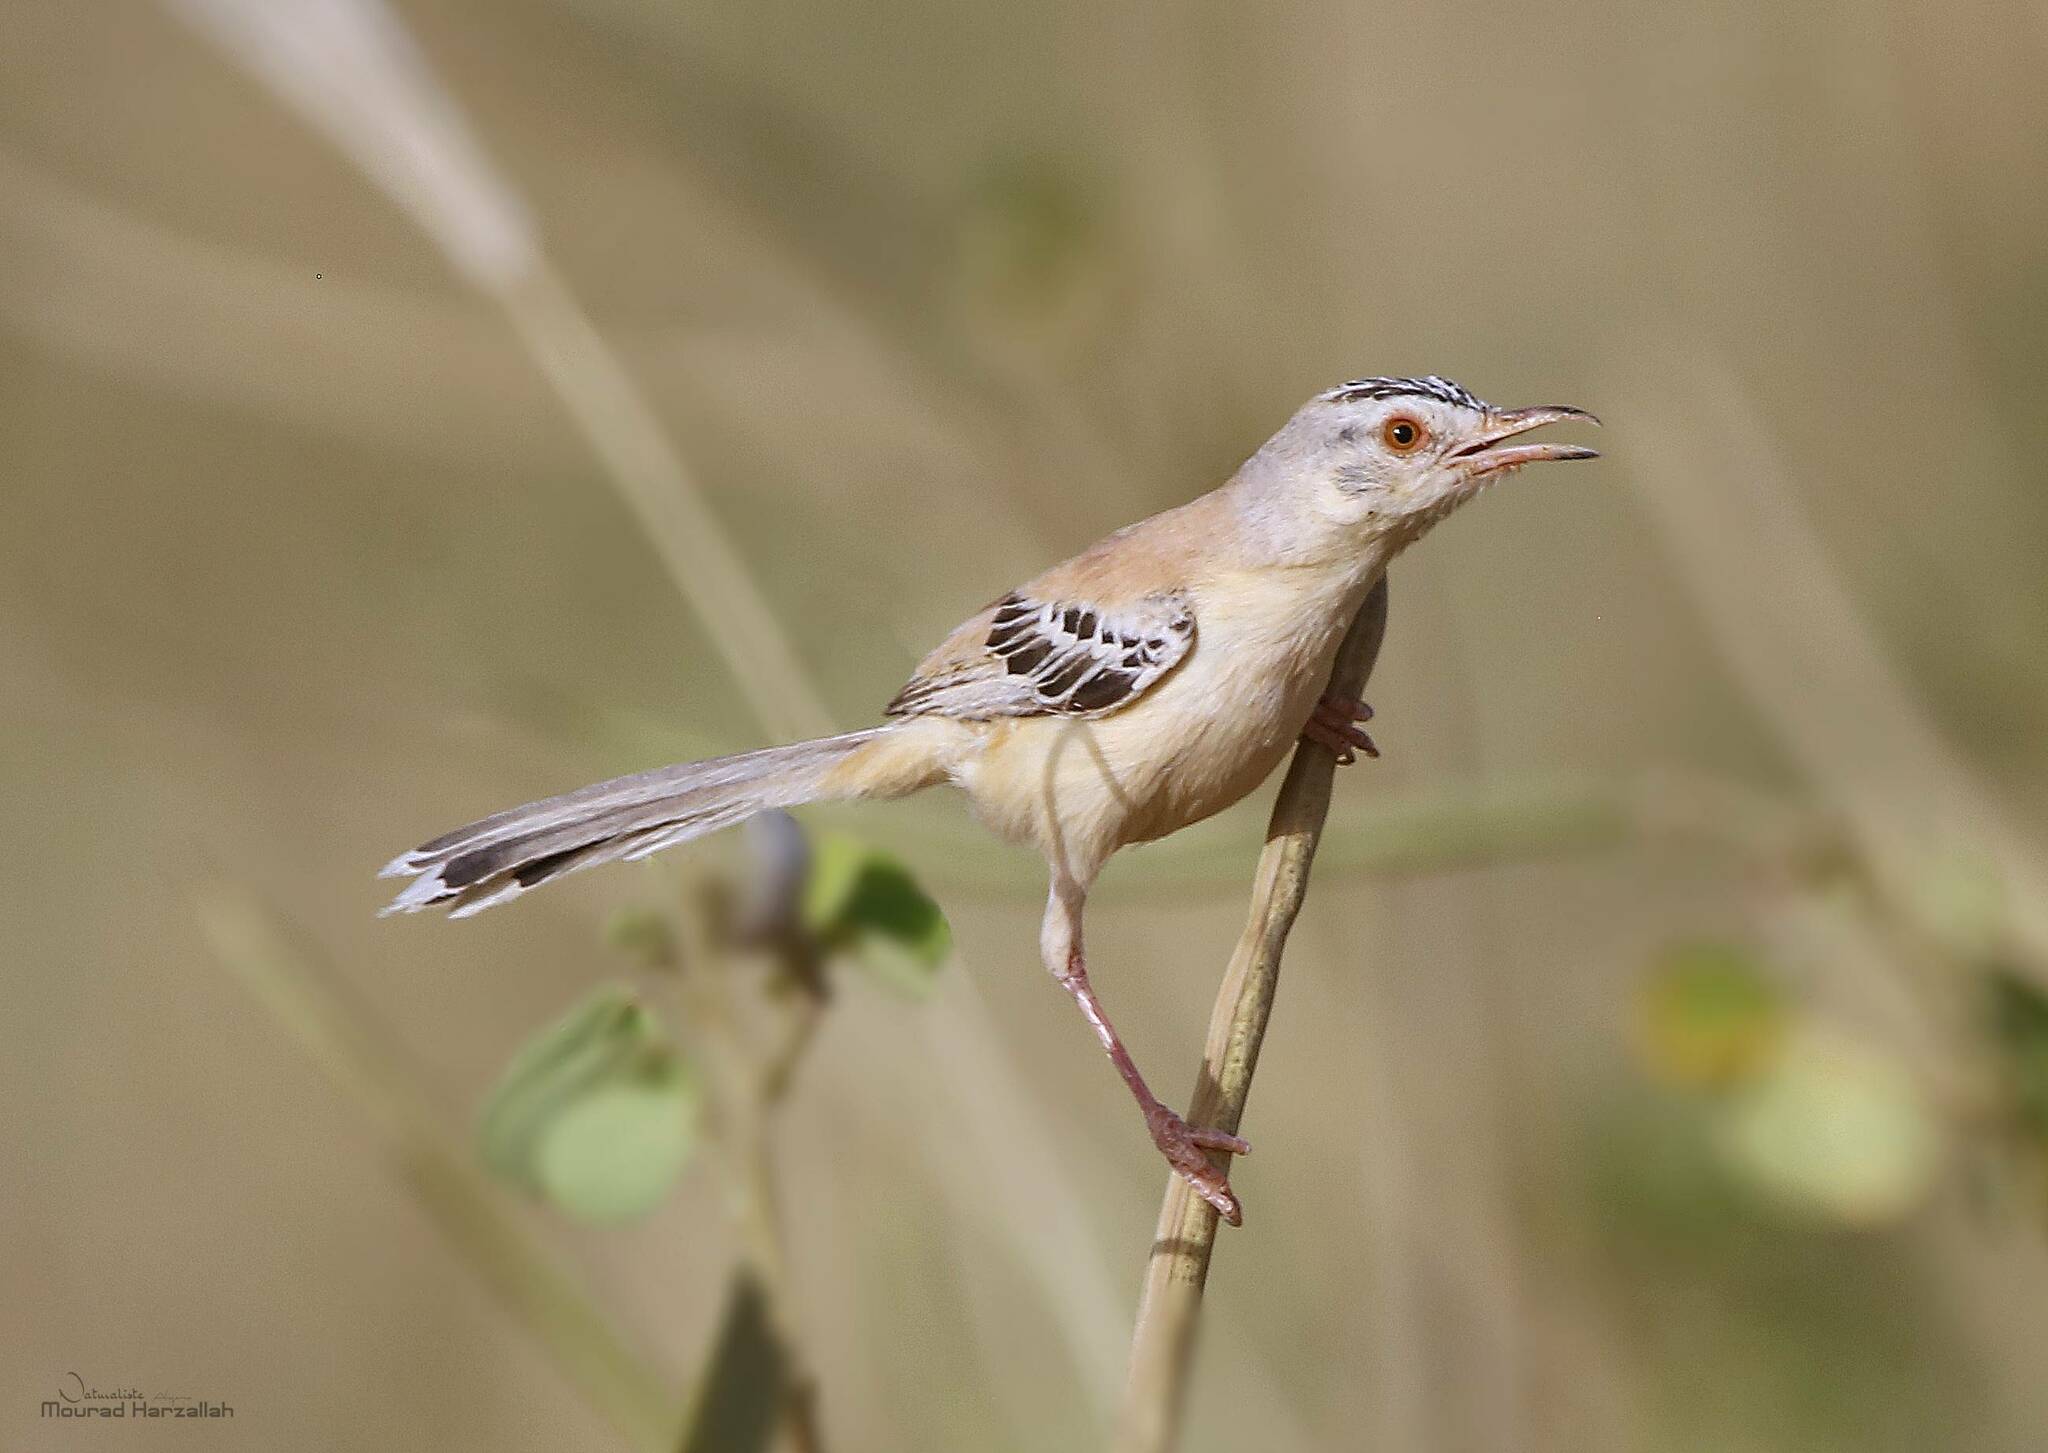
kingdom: Animalia
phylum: Chordata
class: Aves
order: Passeriformes
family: Cisticolidae
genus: Spiloptila
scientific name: Spiloptila clamans
